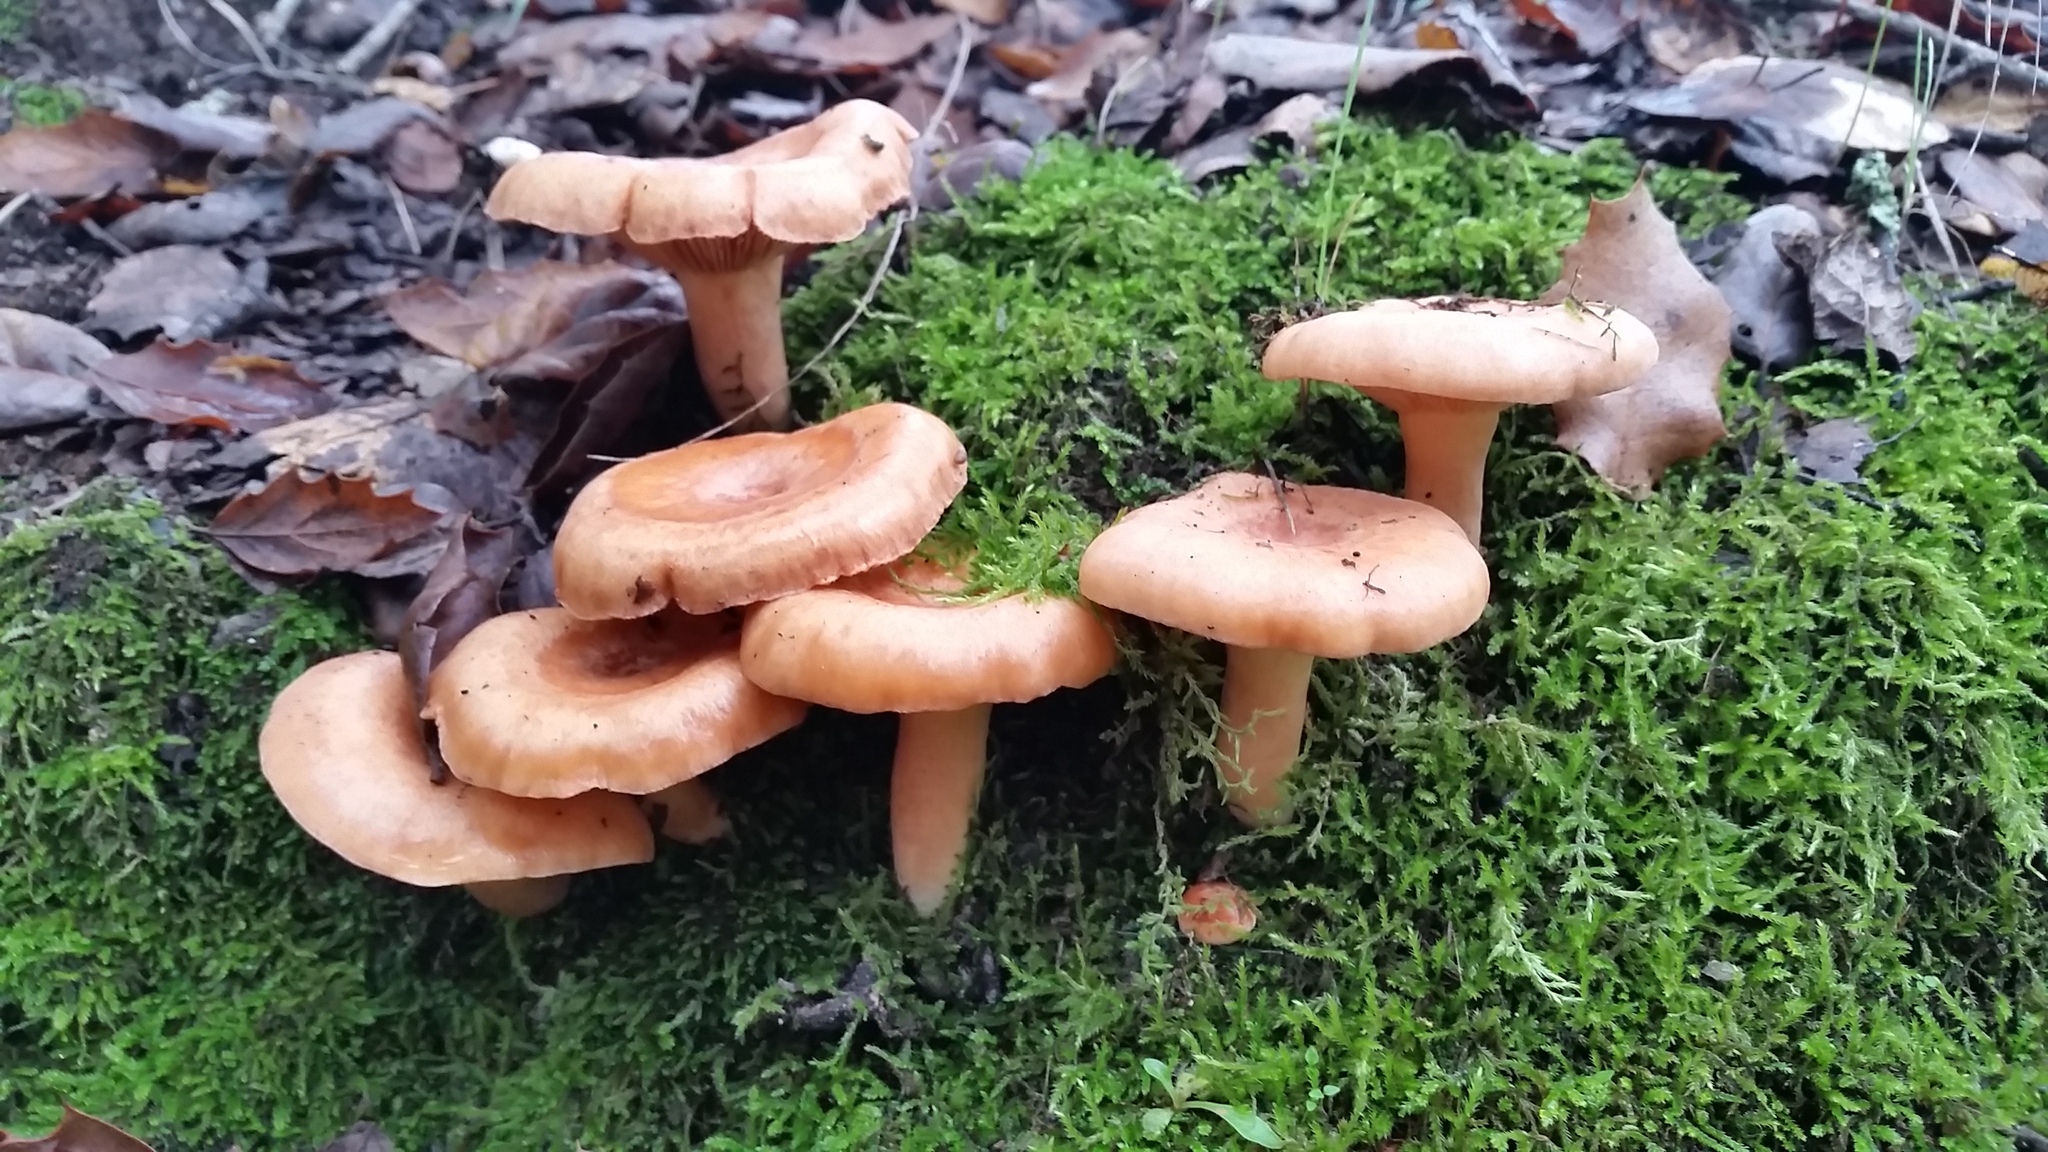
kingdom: Fungi
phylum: Basidiomycota
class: Agaricomycetes
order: Russulales
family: Russulaceae
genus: Lactarius
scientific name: Lactarius xanthogalactus
